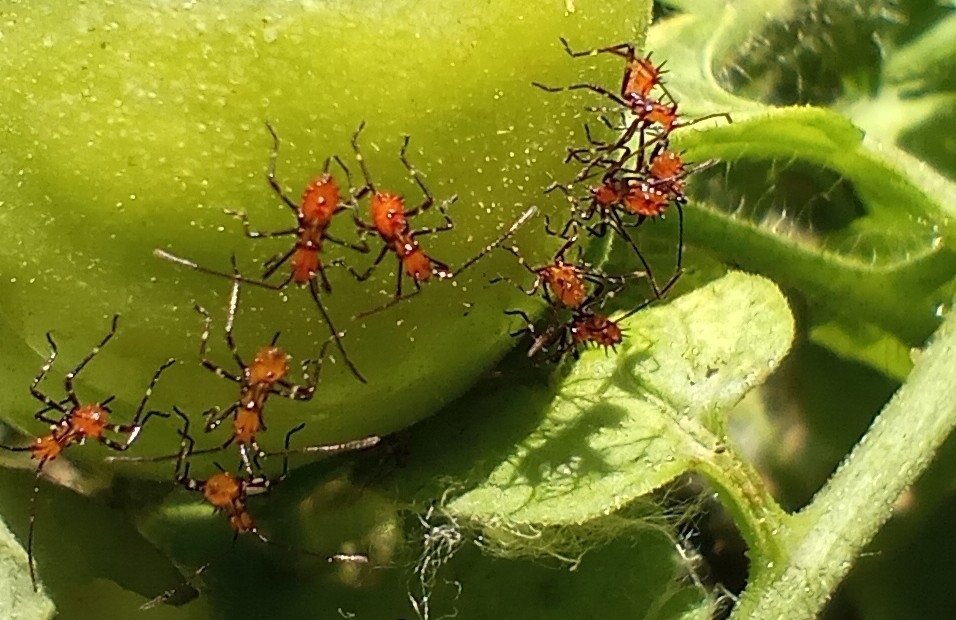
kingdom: Animalia
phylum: Arthropoda
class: Insecta
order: Hemiptera
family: Coreidae
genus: Phthiacnemia
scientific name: Phthiacnemia picta
